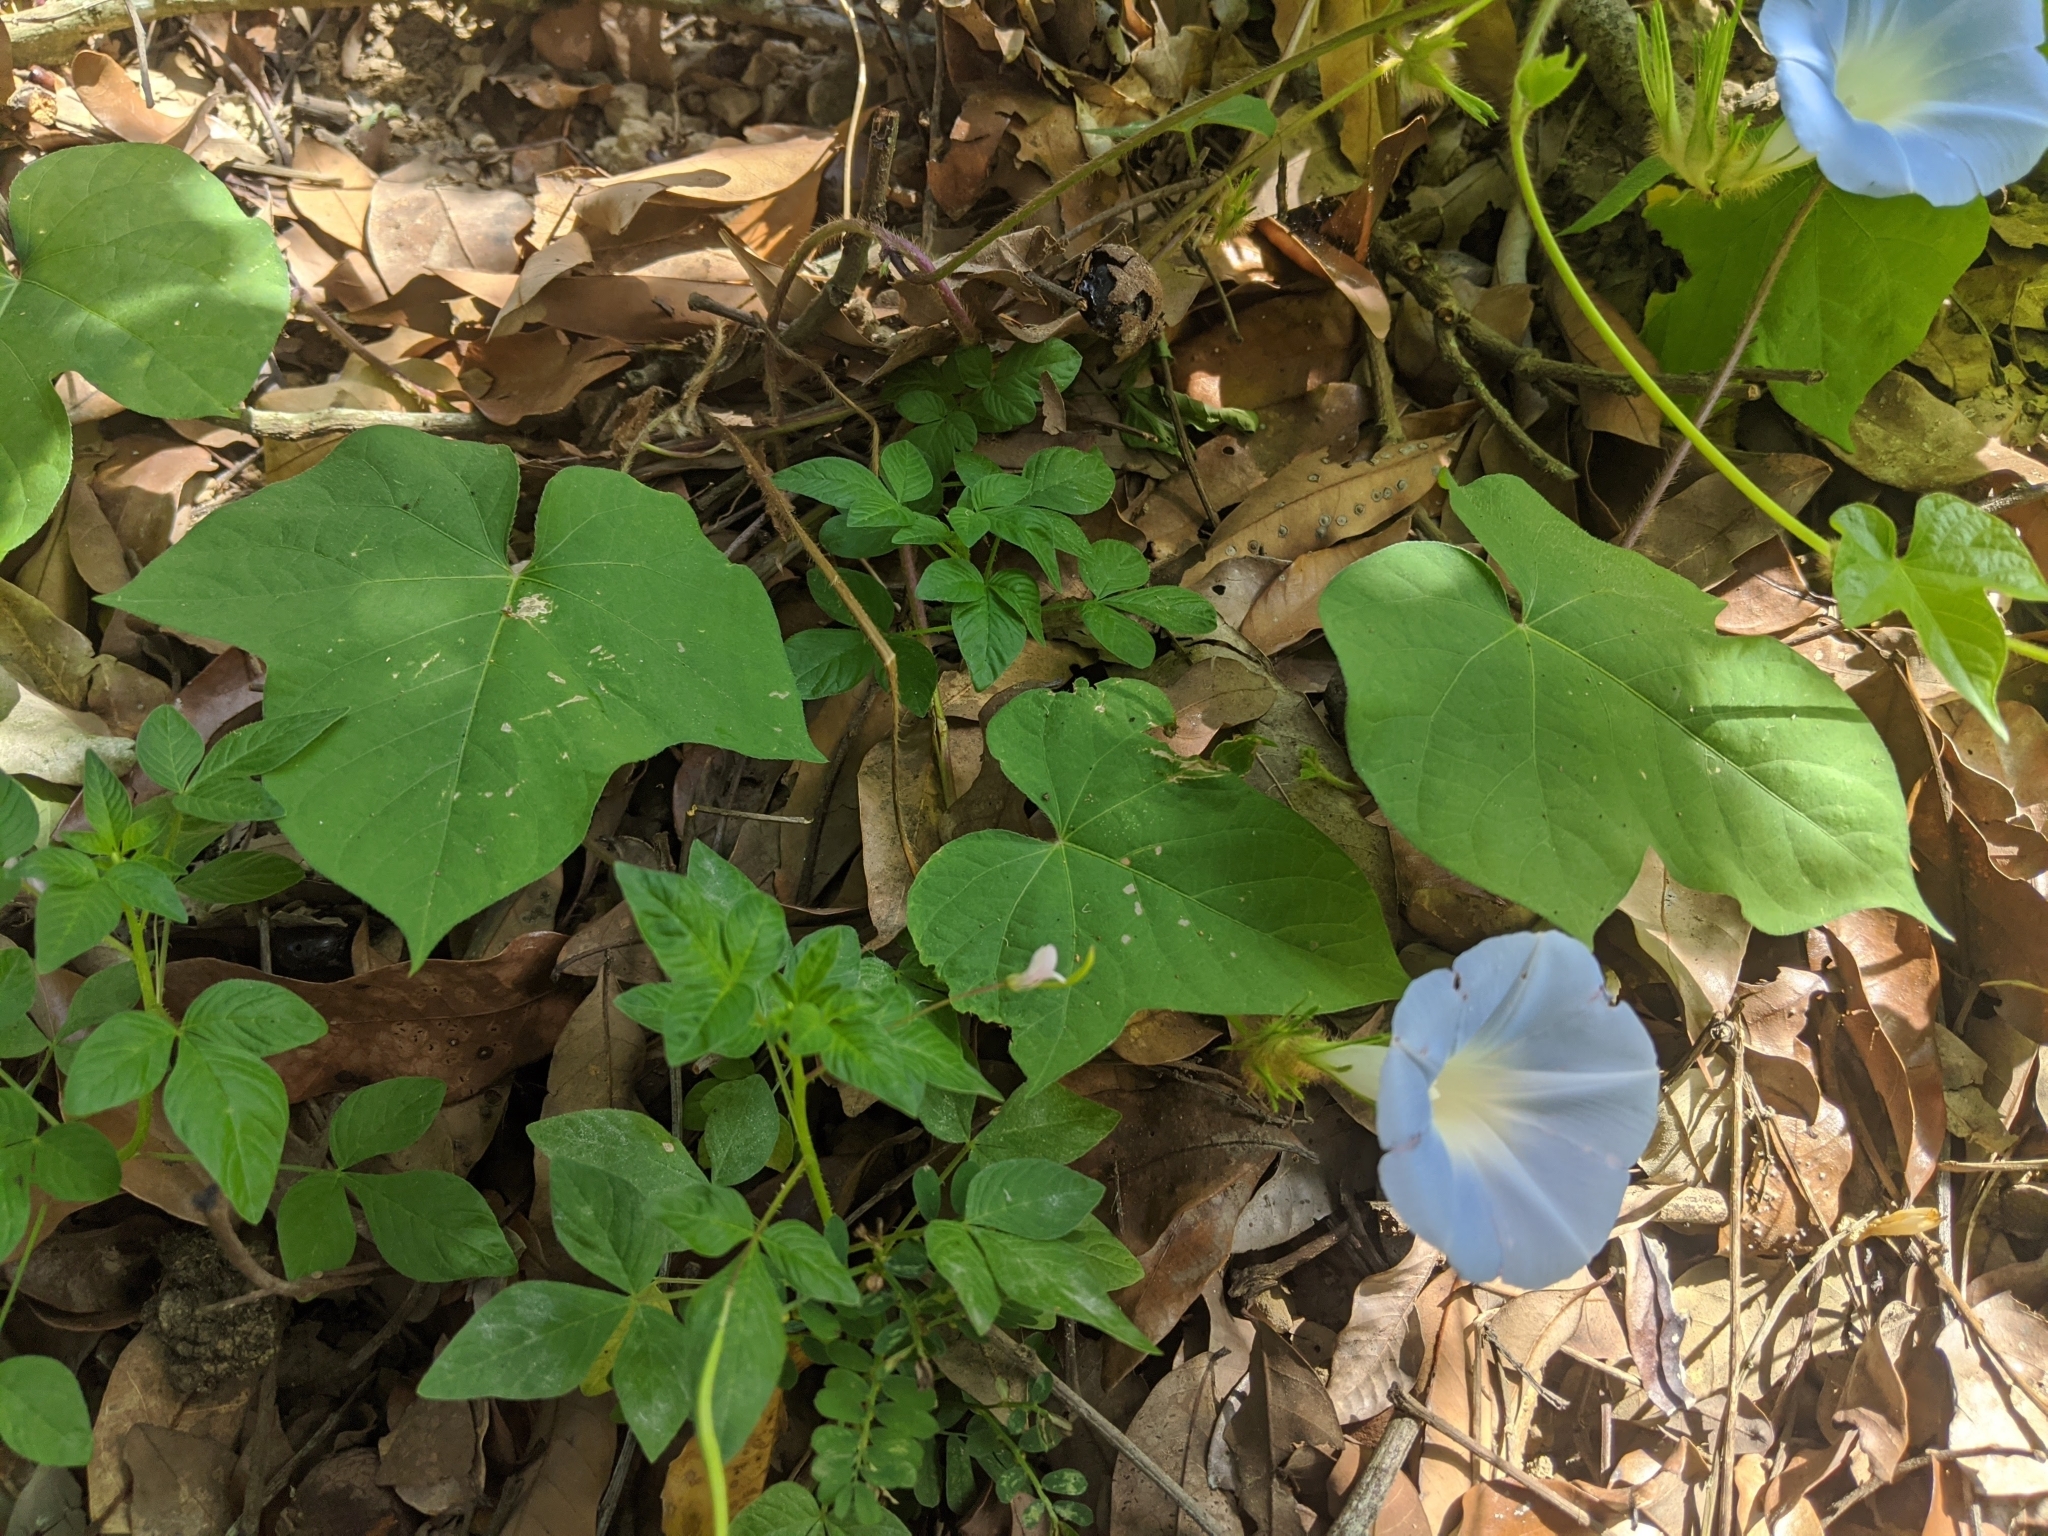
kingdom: Plantae
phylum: Tracheophyta
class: Magnoliopsida
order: Solanales
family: Convolvulaceae
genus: Ipomoea
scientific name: Ipomoea nil
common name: Japanese morning-glory
